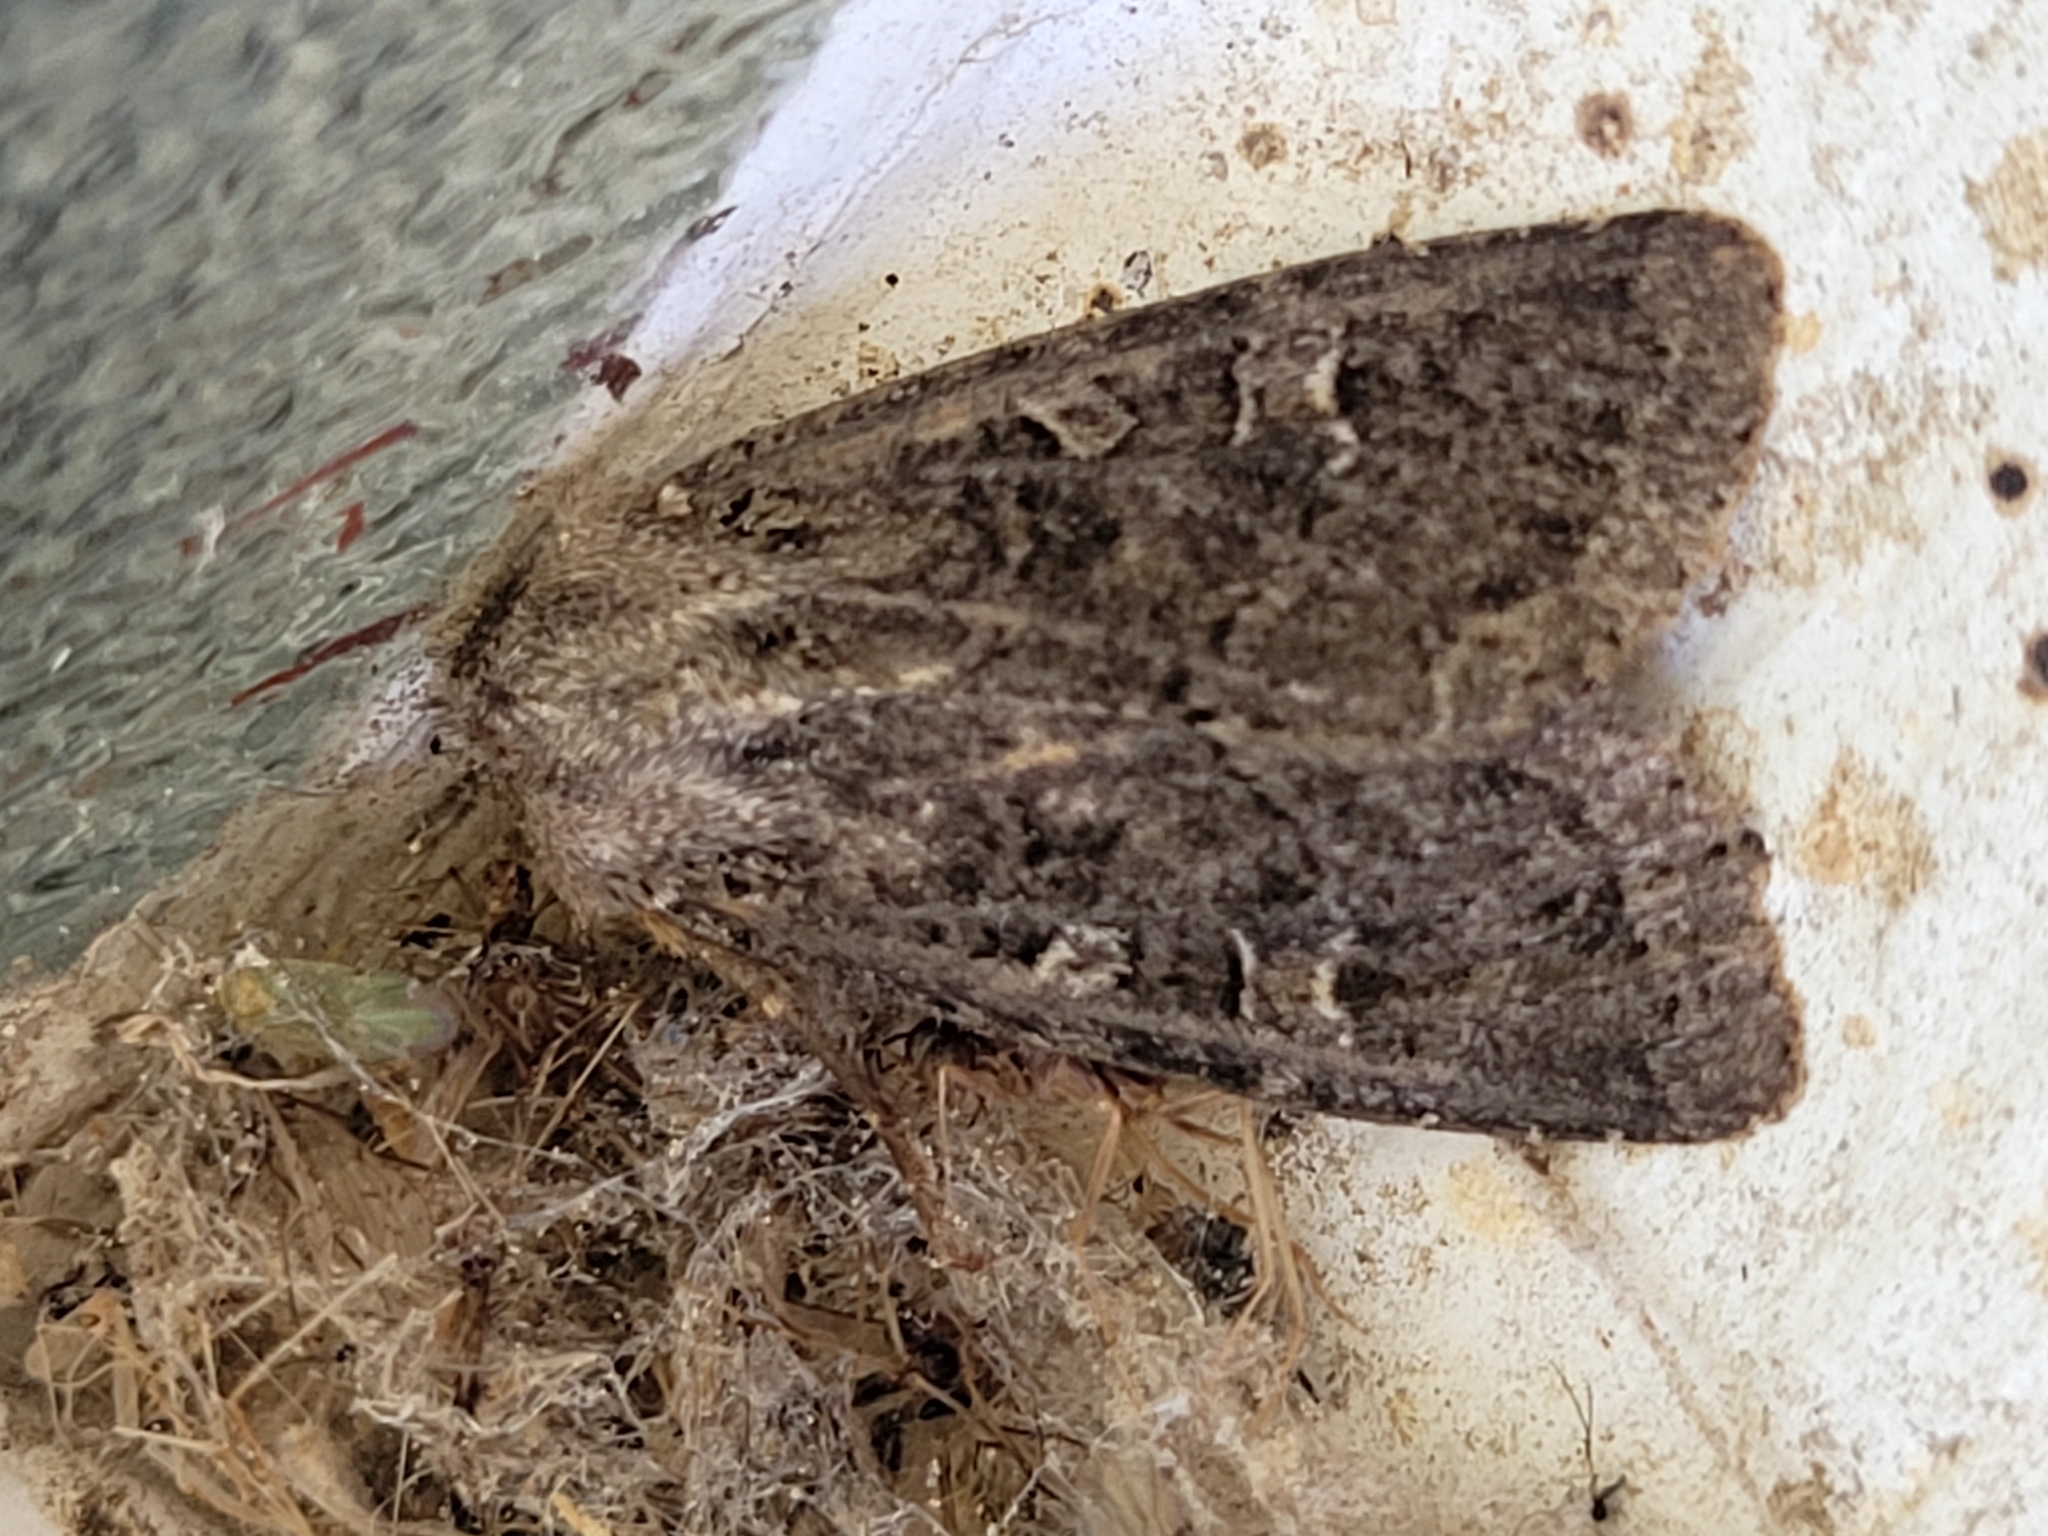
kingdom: Animalia
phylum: Arthropoda
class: Insecta
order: Lepidoptera
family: Noctuidae
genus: Apamea
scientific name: Apamea devastator
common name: Glassy cutworm
